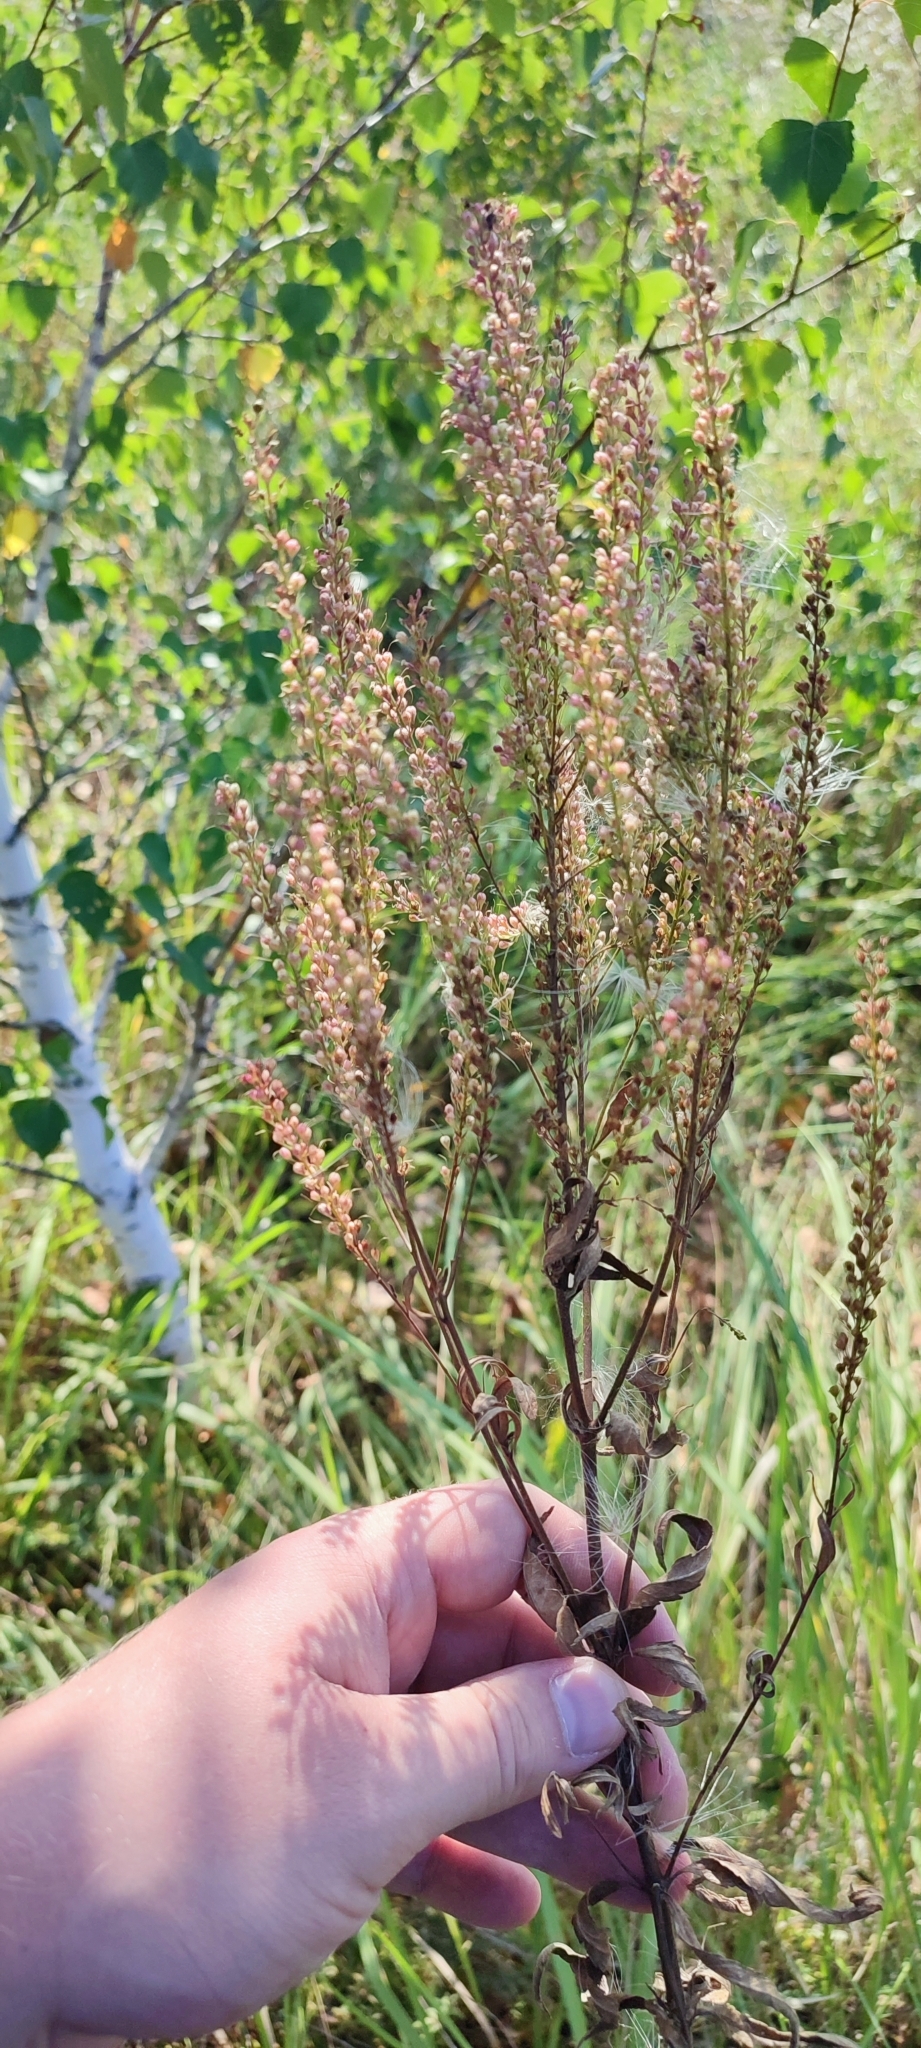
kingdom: Plantae
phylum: Tracheophyta
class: Magnoliopsida
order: Lamiales
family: Plantaginaceae
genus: Veronica
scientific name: Veronica longifolia
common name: Garden speedwell
